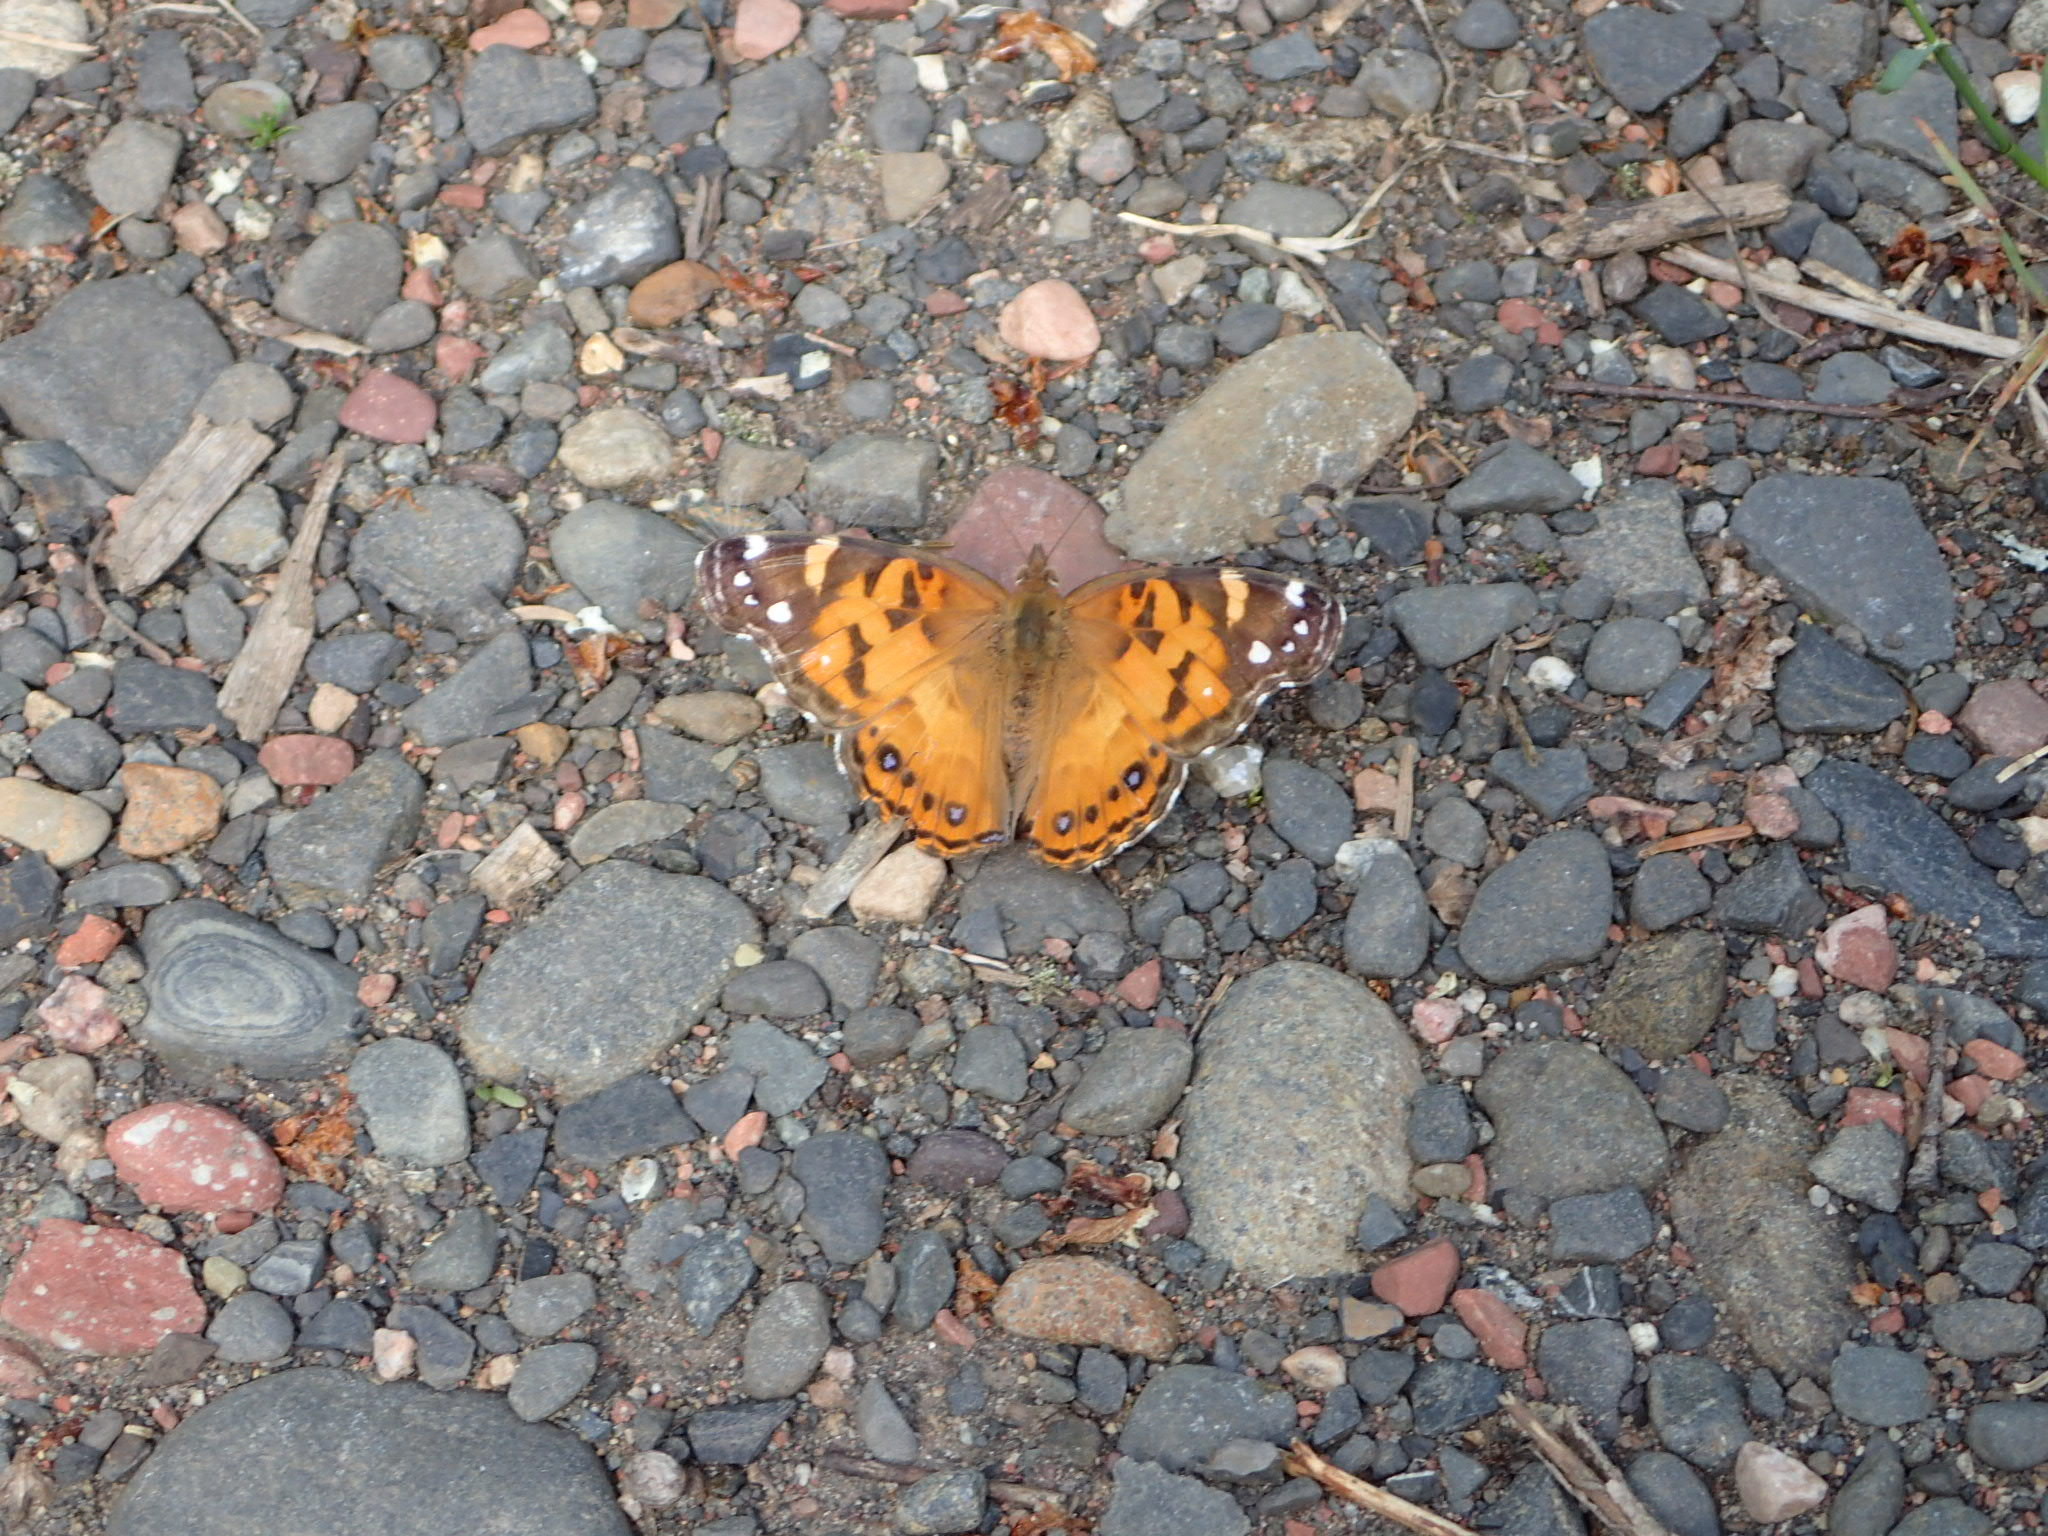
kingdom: Animalia
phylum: Arthropoda
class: Insecta
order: Lepidoptera
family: Nymphalidae
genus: Vanessa
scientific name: Vanessa virginiensis
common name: American lady
